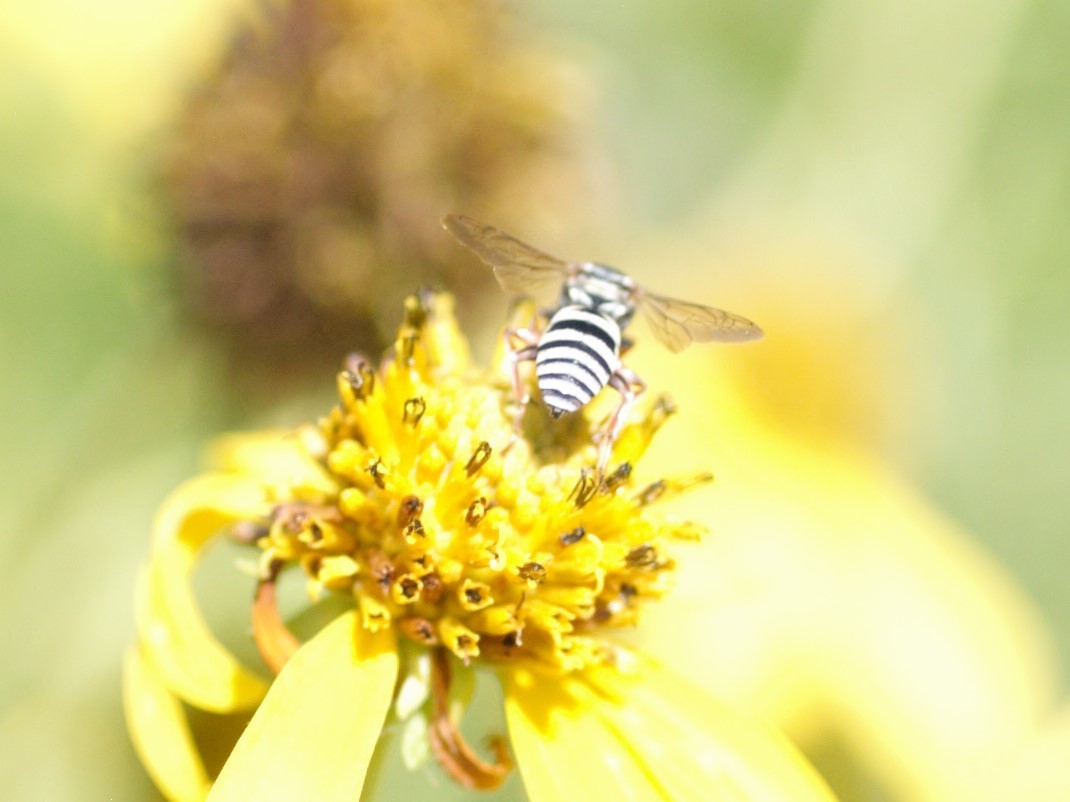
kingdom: Animalia
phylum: Arthropoda
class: Insecta
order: Hymenoptera
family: Apidae
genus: Triepeolus
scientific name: Triepeolus
